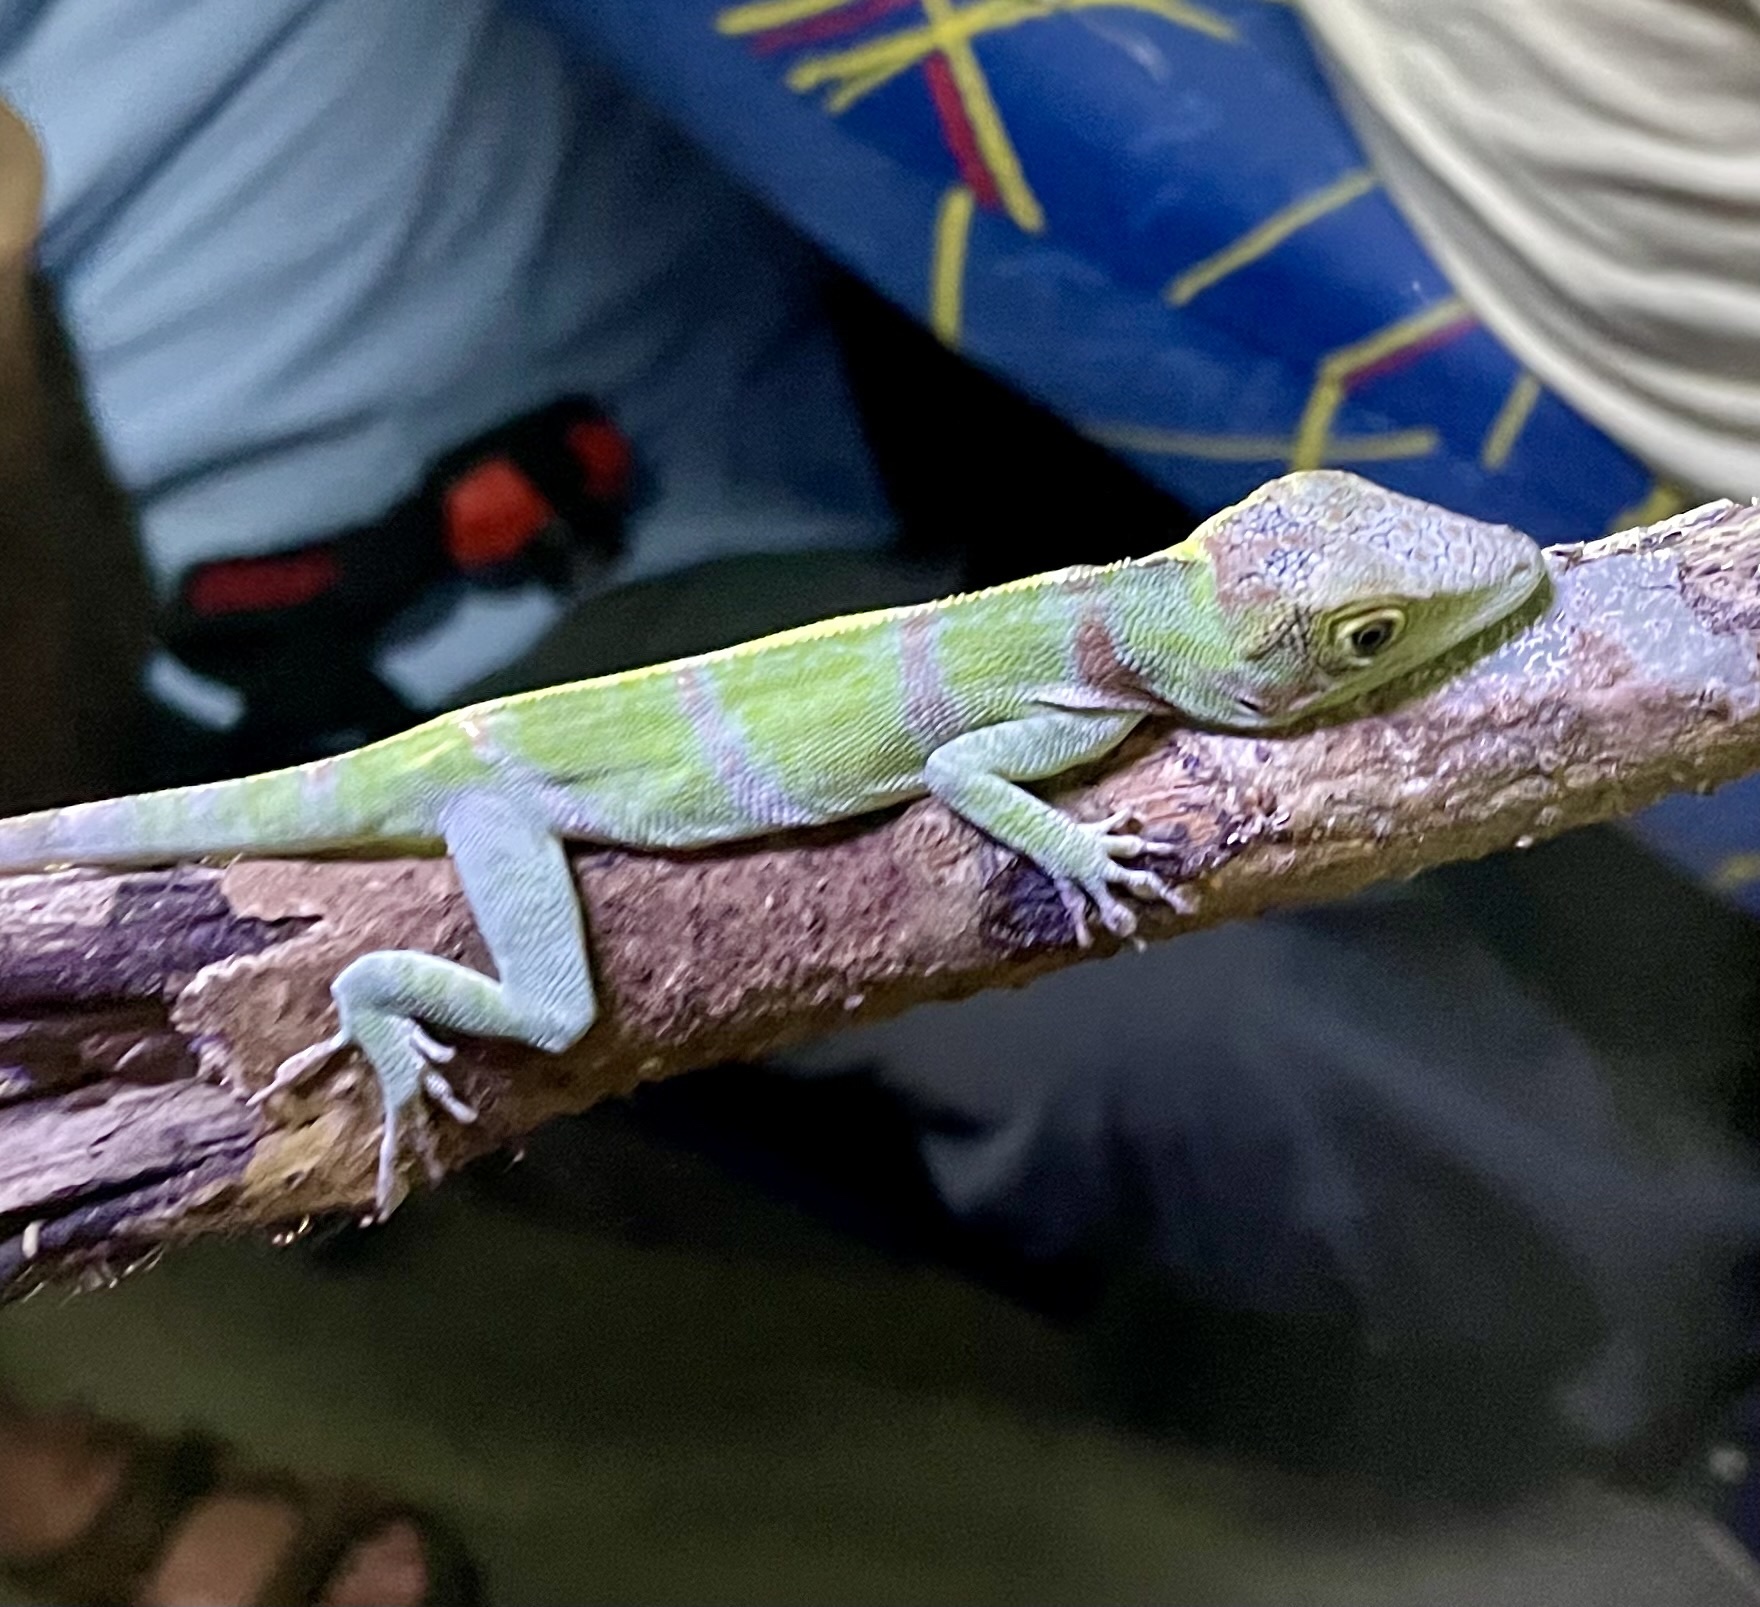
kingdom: Animalia
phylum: Chordata
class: Squamata
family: Dactyloidae
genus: Anolis
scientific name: Anolis luteogularis
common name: Western giant anole
